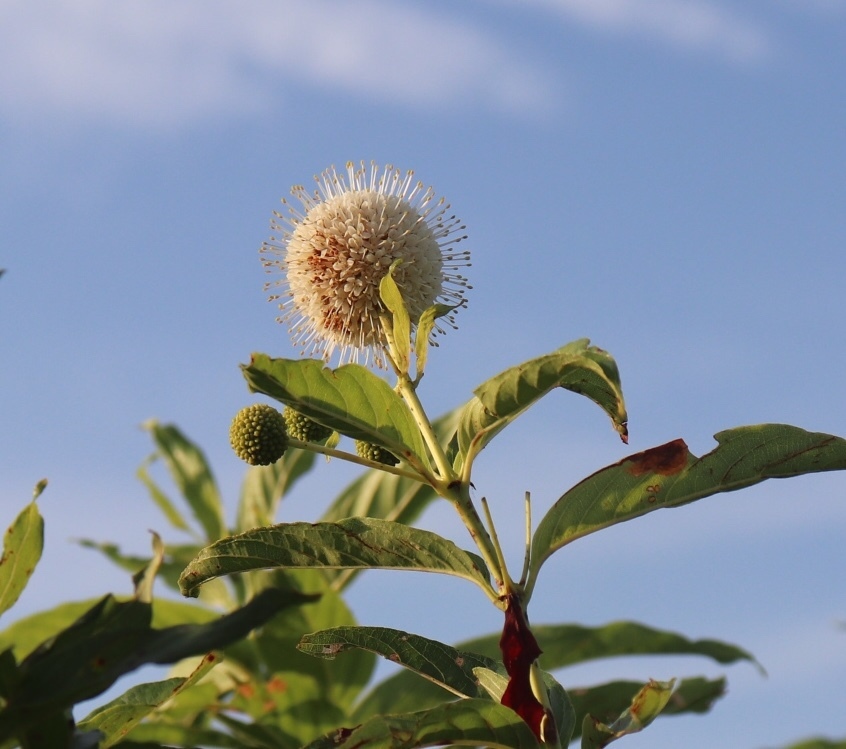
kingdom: Plantae
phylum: Tracheophyta
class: Magnoliopsida
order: Gentianales
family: Rubiaceae
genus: Cephalanthus
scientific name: Cephalanthus occidentalis
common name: Button-willow
